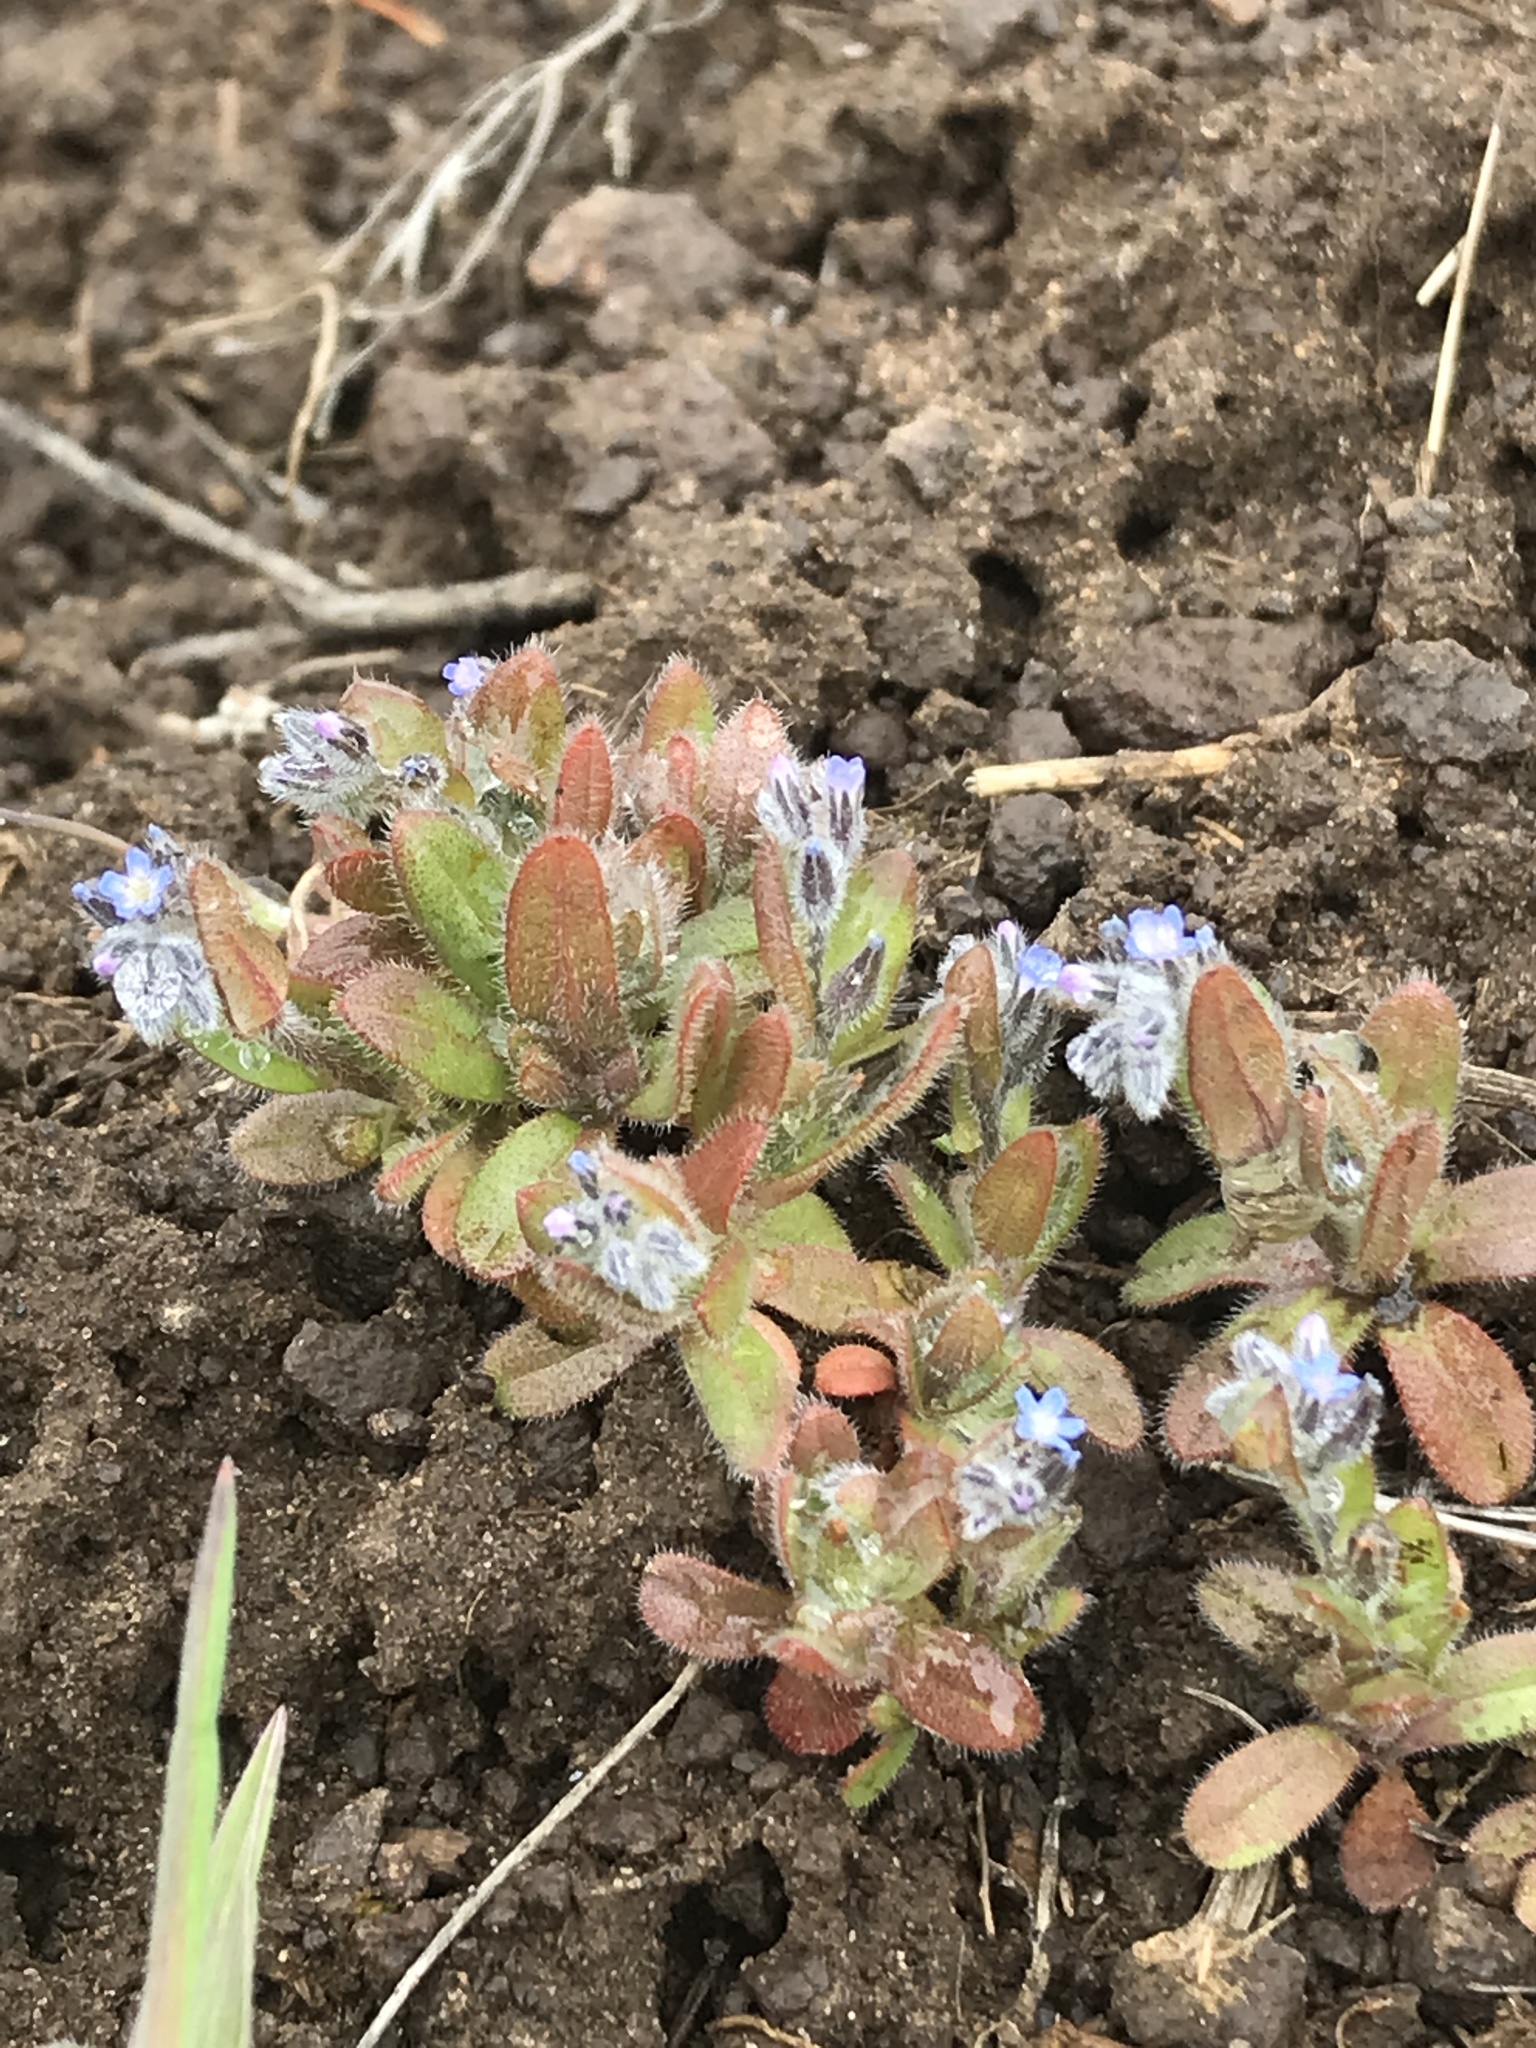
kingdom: Plantae
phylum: Tracheophyta
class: Magnoliopsida
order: Boraginales
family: Boraginaceae
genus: Myosotis
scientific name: Myosotis stricta
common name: Strict forget-me-not
